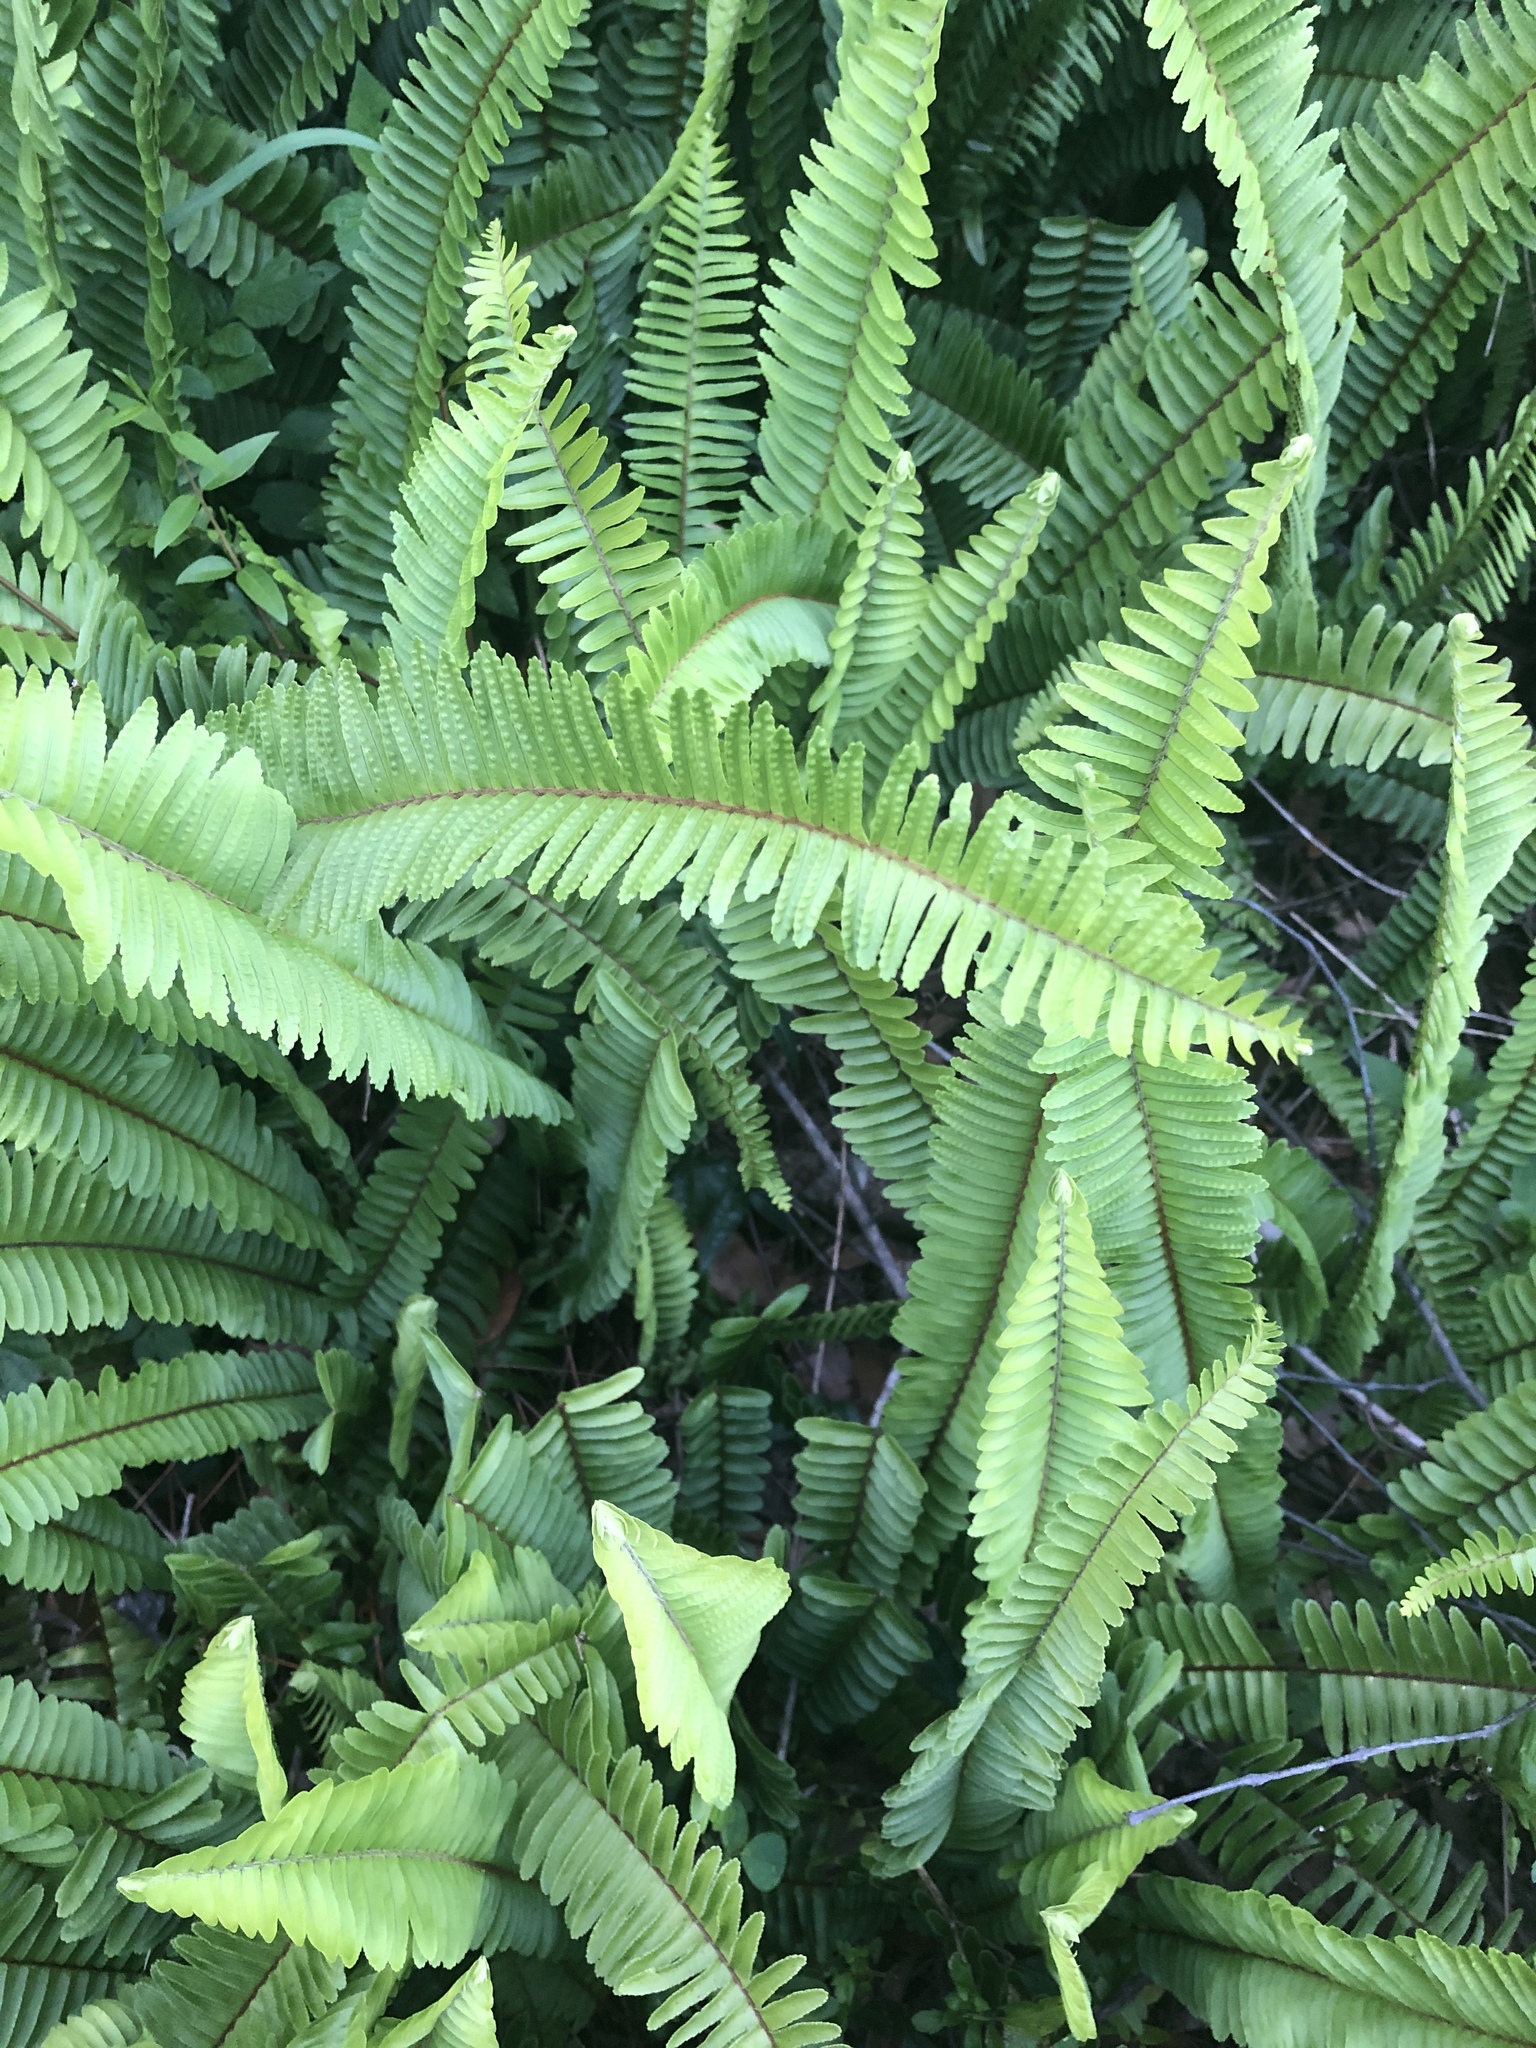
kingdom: Plantae
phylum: Tracheophyta
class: Polypodiopsida
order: Polypodiales
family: Nephrolepidaceae
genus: Nephrolepis
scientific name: Nephrolepis cordifolia
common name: Narrow swordfern
